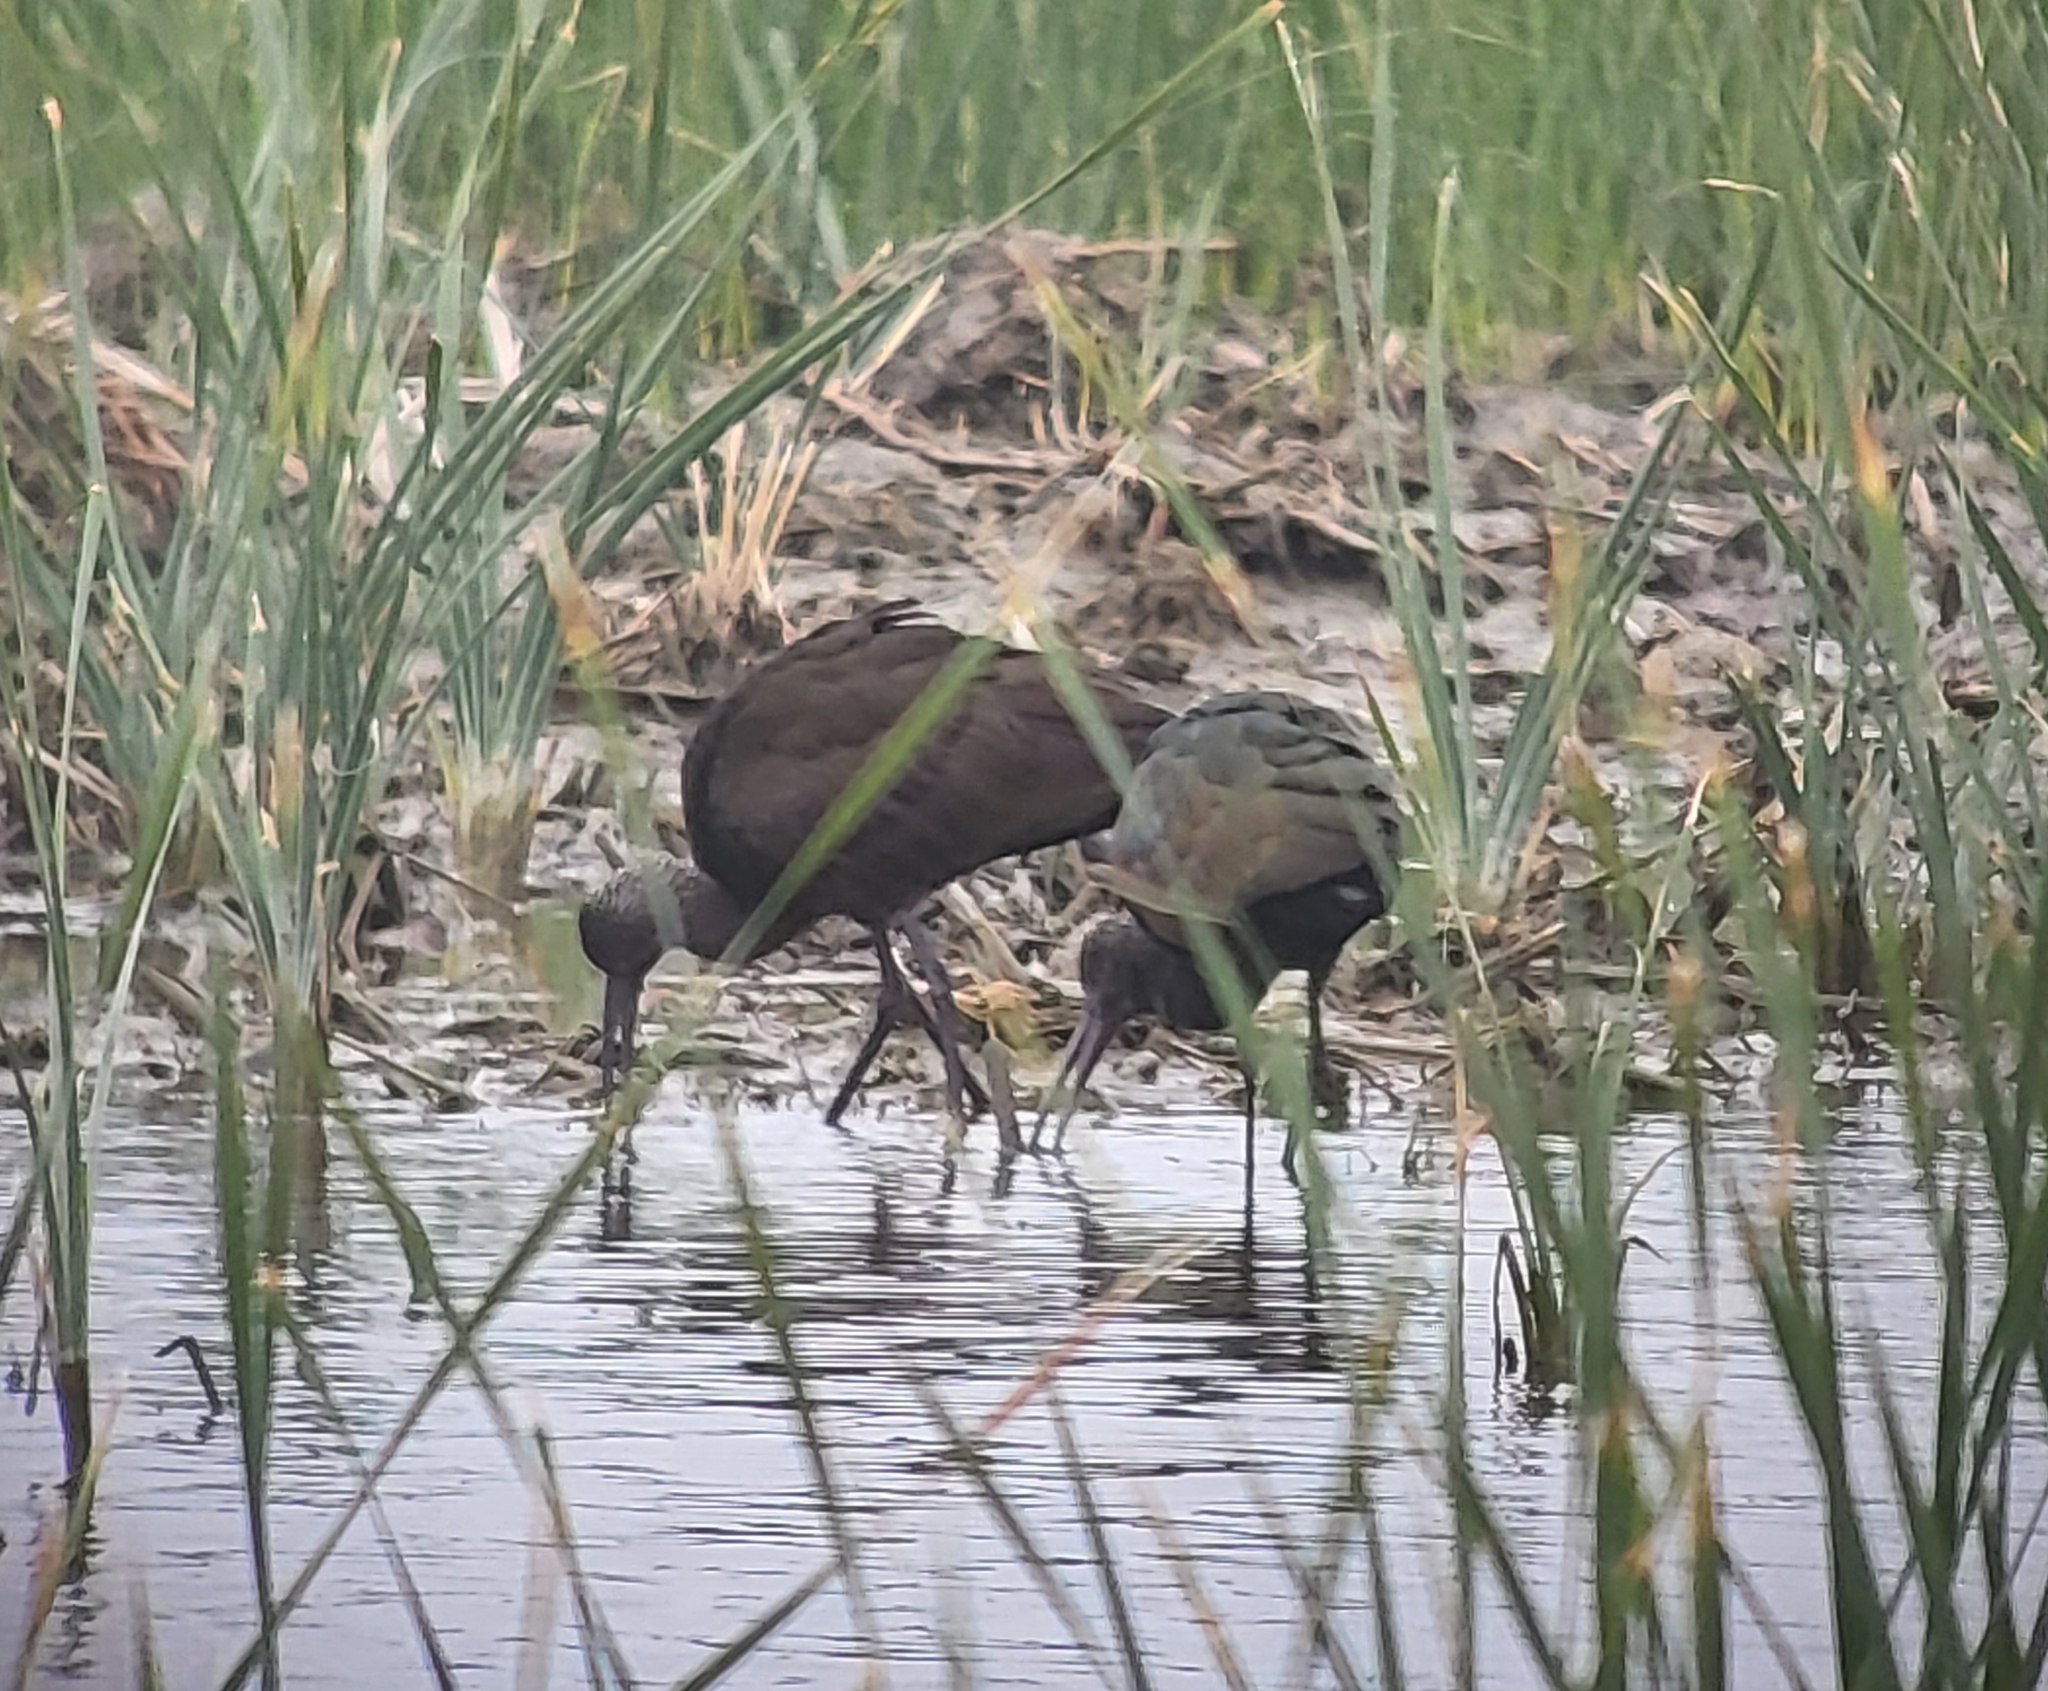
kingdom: Animalia
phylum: Chordata
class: Aves
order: Pelecaniformes
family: Threskiornithidae
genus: Plegadis
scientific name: Plegadis chihi
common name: White-faced ibis
